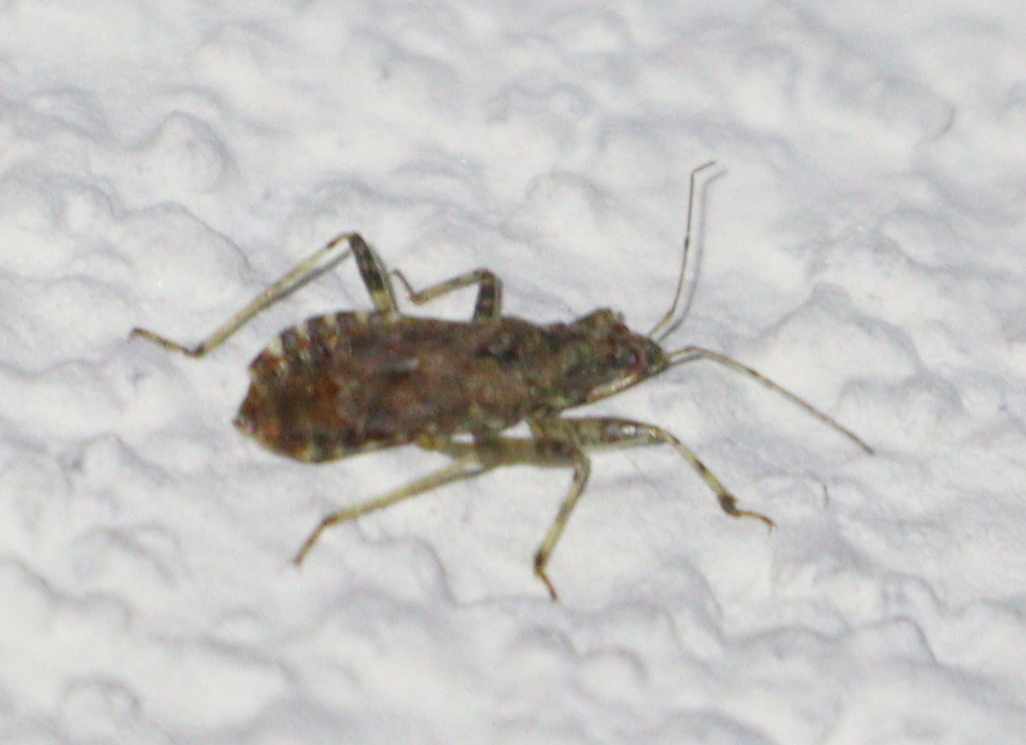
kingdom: Animalia
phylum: Arthropoda
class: Insecta
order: Hemiptera
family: Nabidae
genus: Himacerus
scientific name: Himacerus mirmicoides
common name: Ant damsel bug
